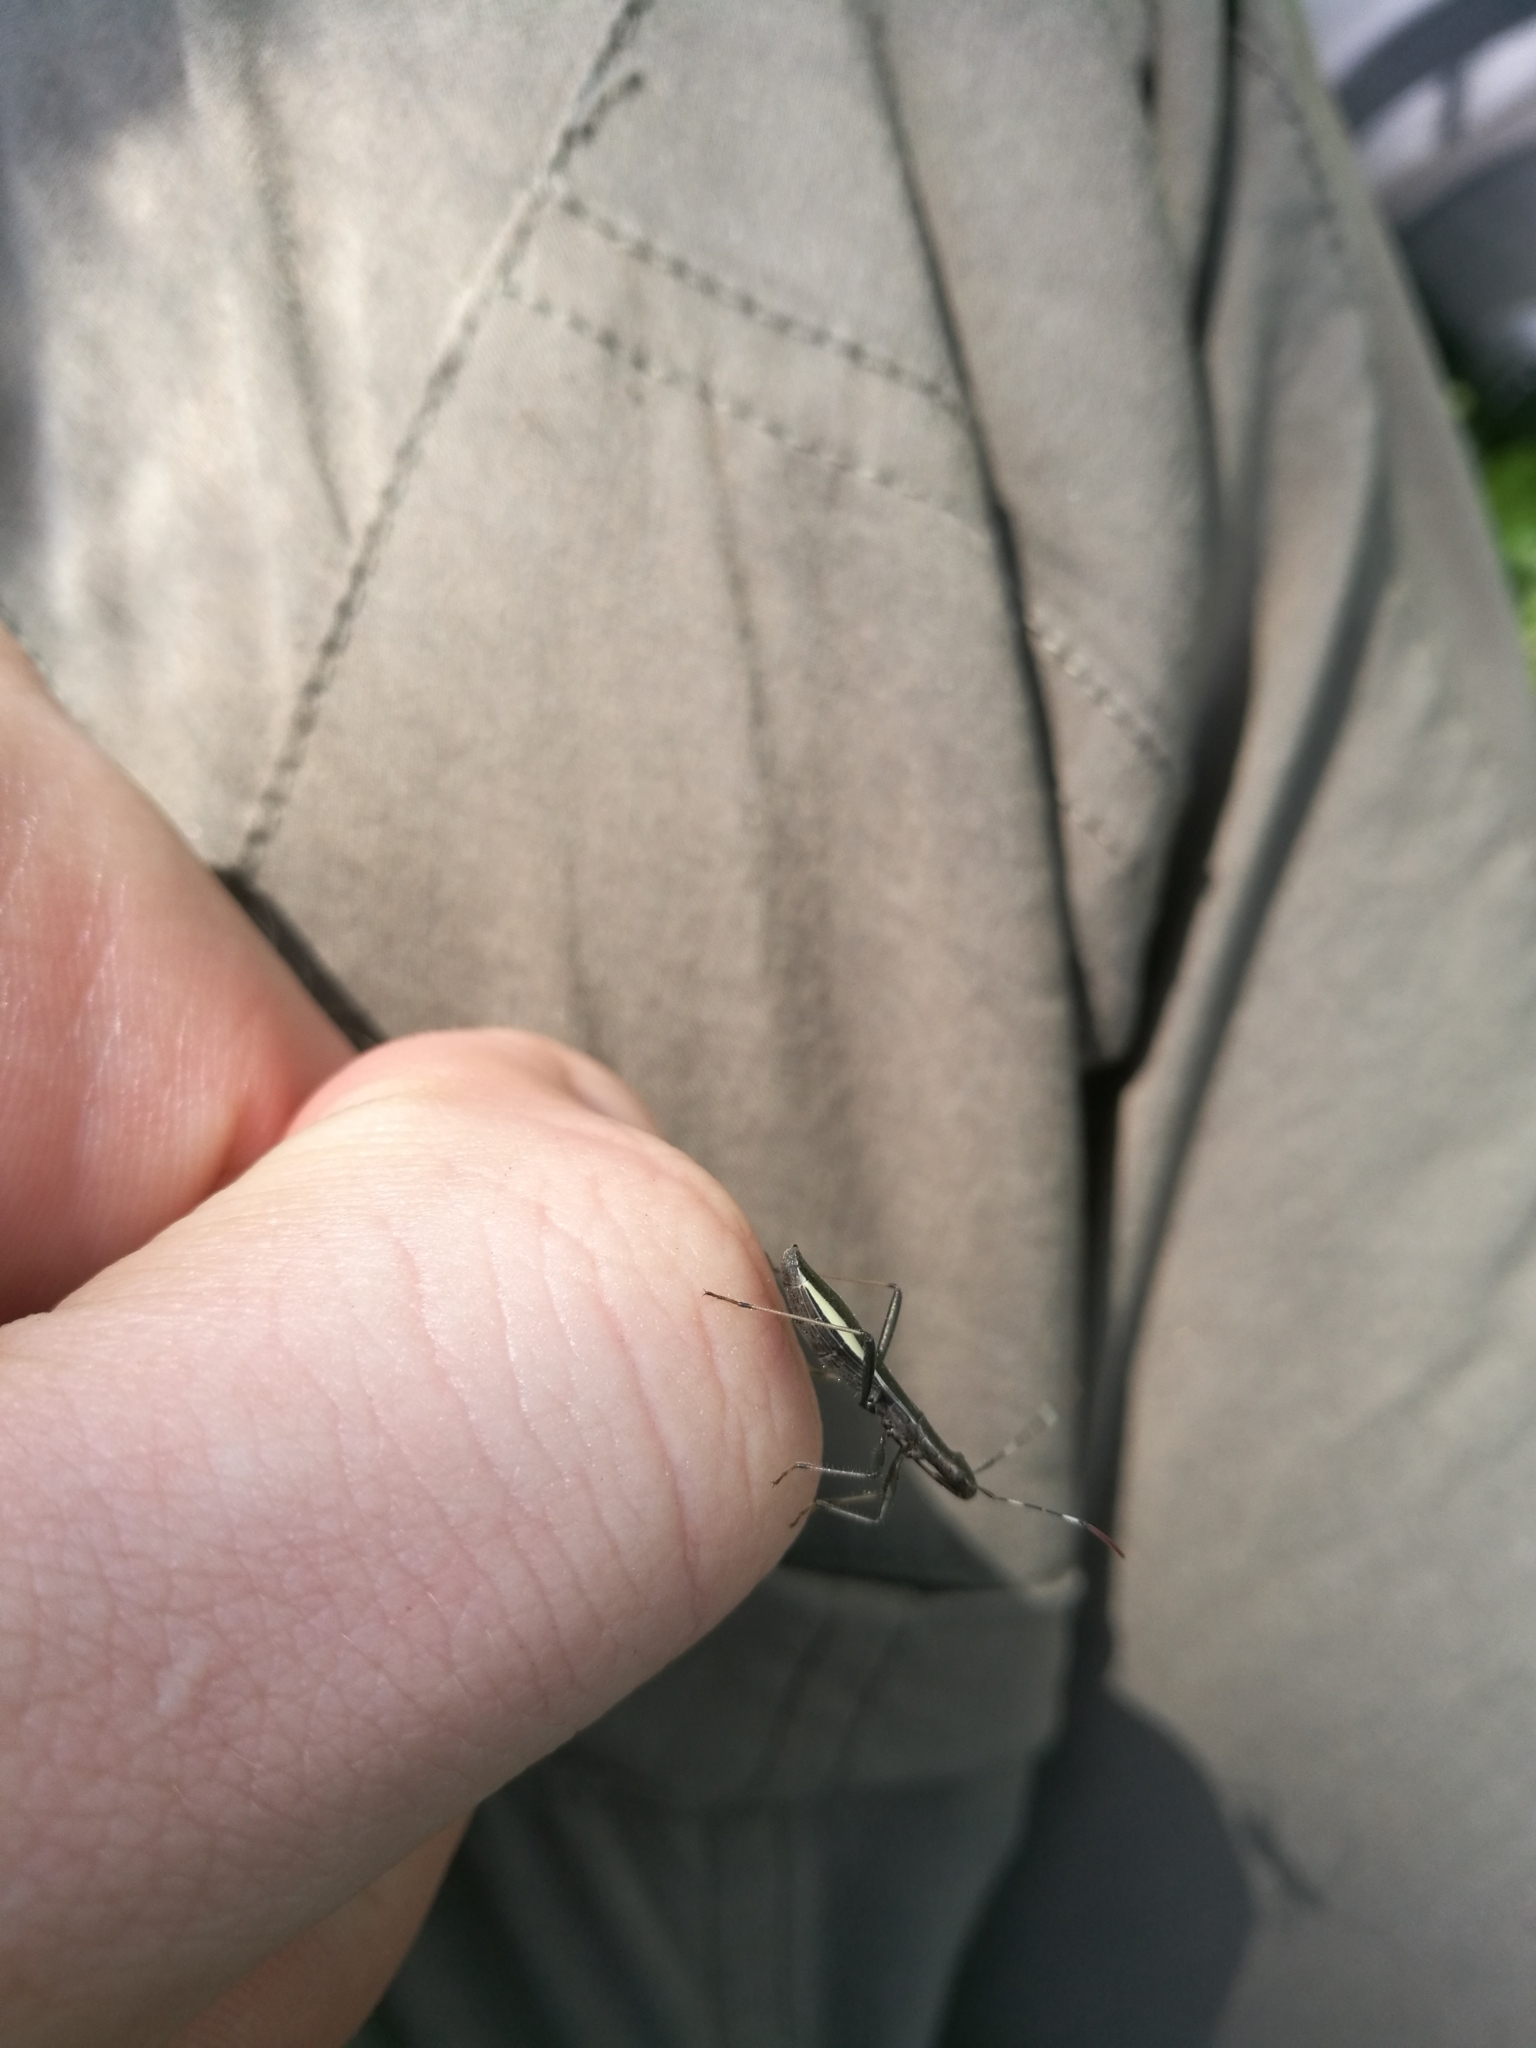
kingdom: Animalia
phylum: Arthropoda
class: Insecta
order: Hemiptera
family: Alydidae
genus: Micrelytra
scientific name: Micrelytra fossularum
